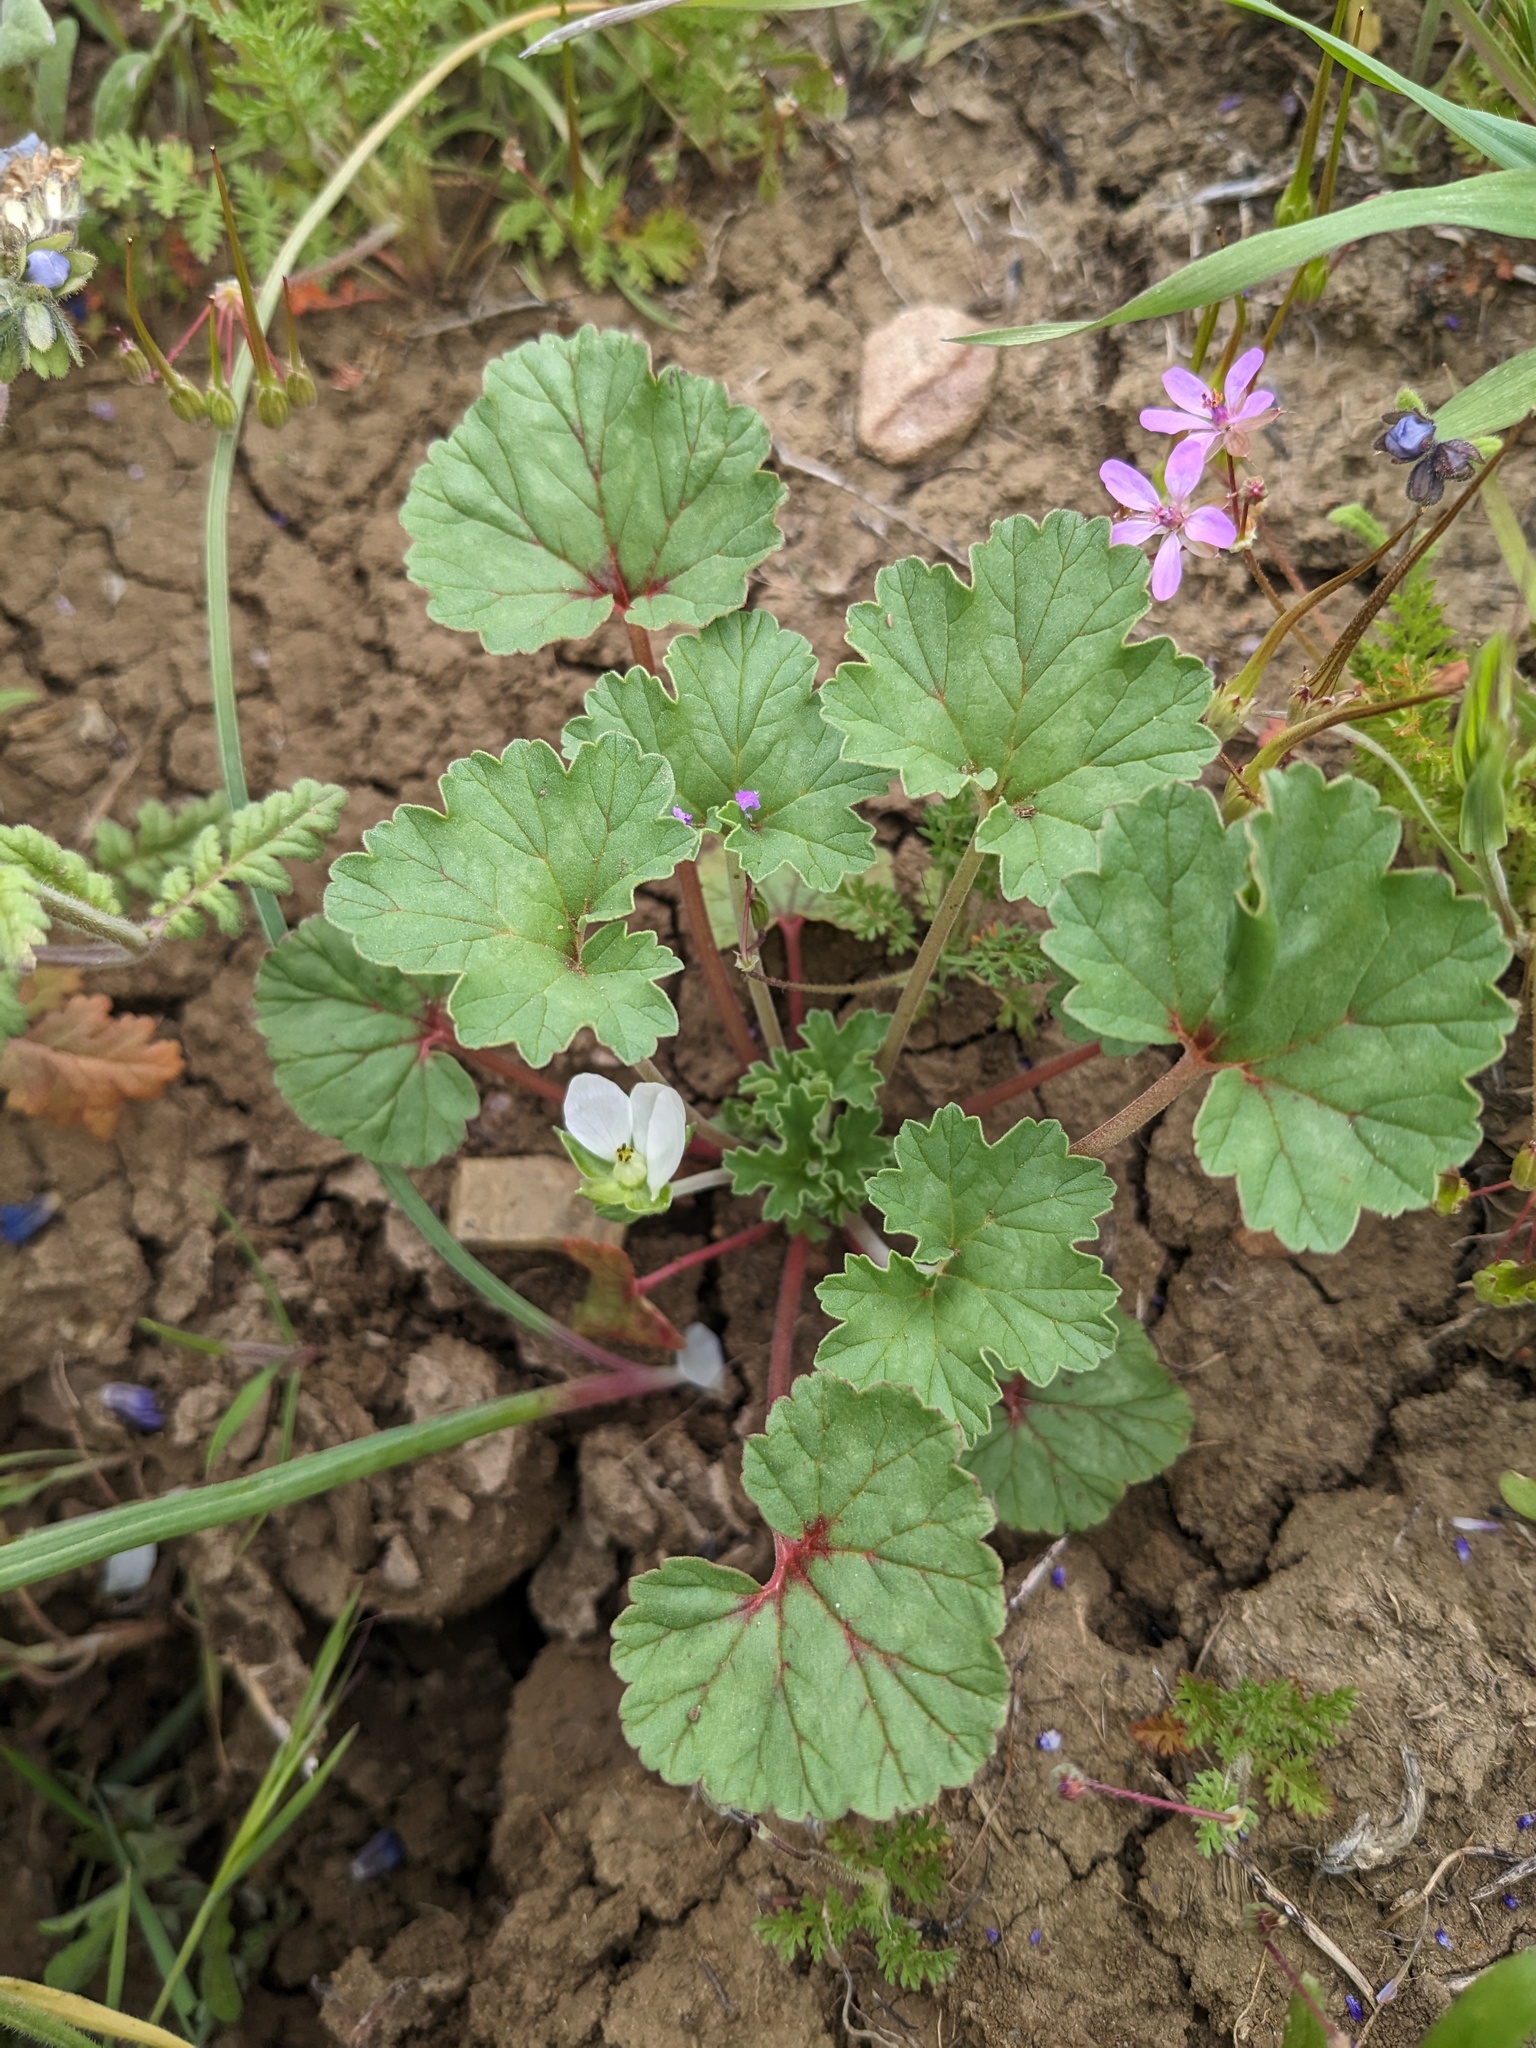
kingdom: Plantae
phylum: Tracheophyta
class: Magnoliopsida
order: Geraniales
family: Geraniaceae
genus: California
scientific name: California macrophylla
